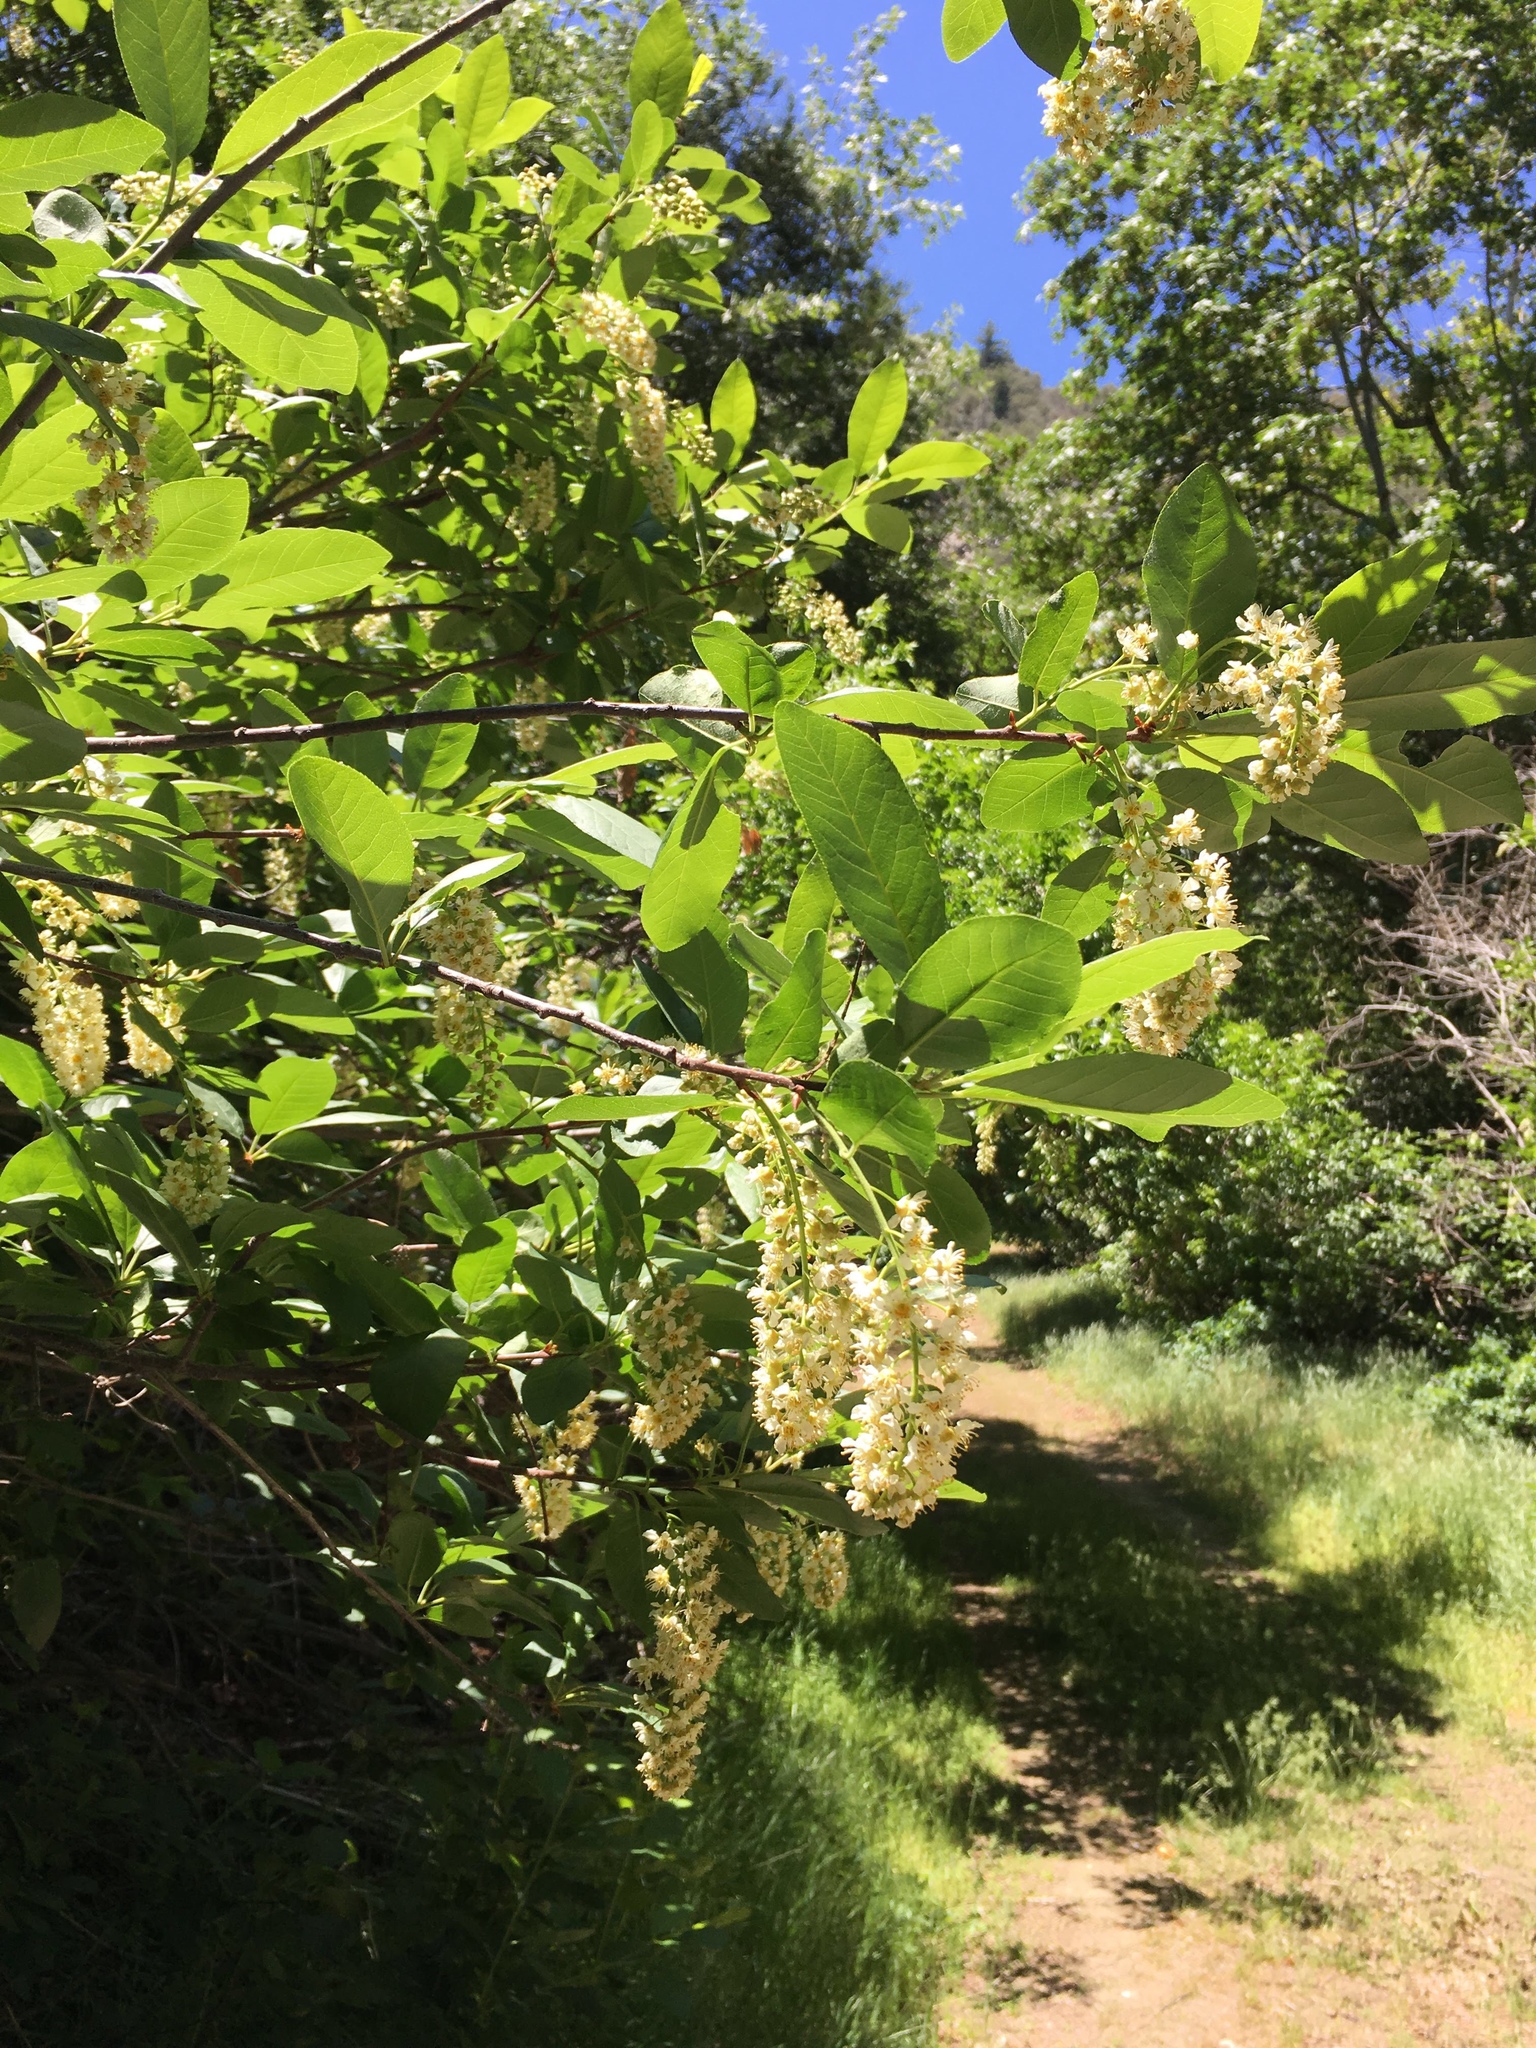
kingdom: Plantae
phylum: Tracheophyta
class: Magnoliopsida
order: Rosales
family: Rosaceae
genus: Prunus
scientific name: Prunus virginiana
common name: Chokecherry
